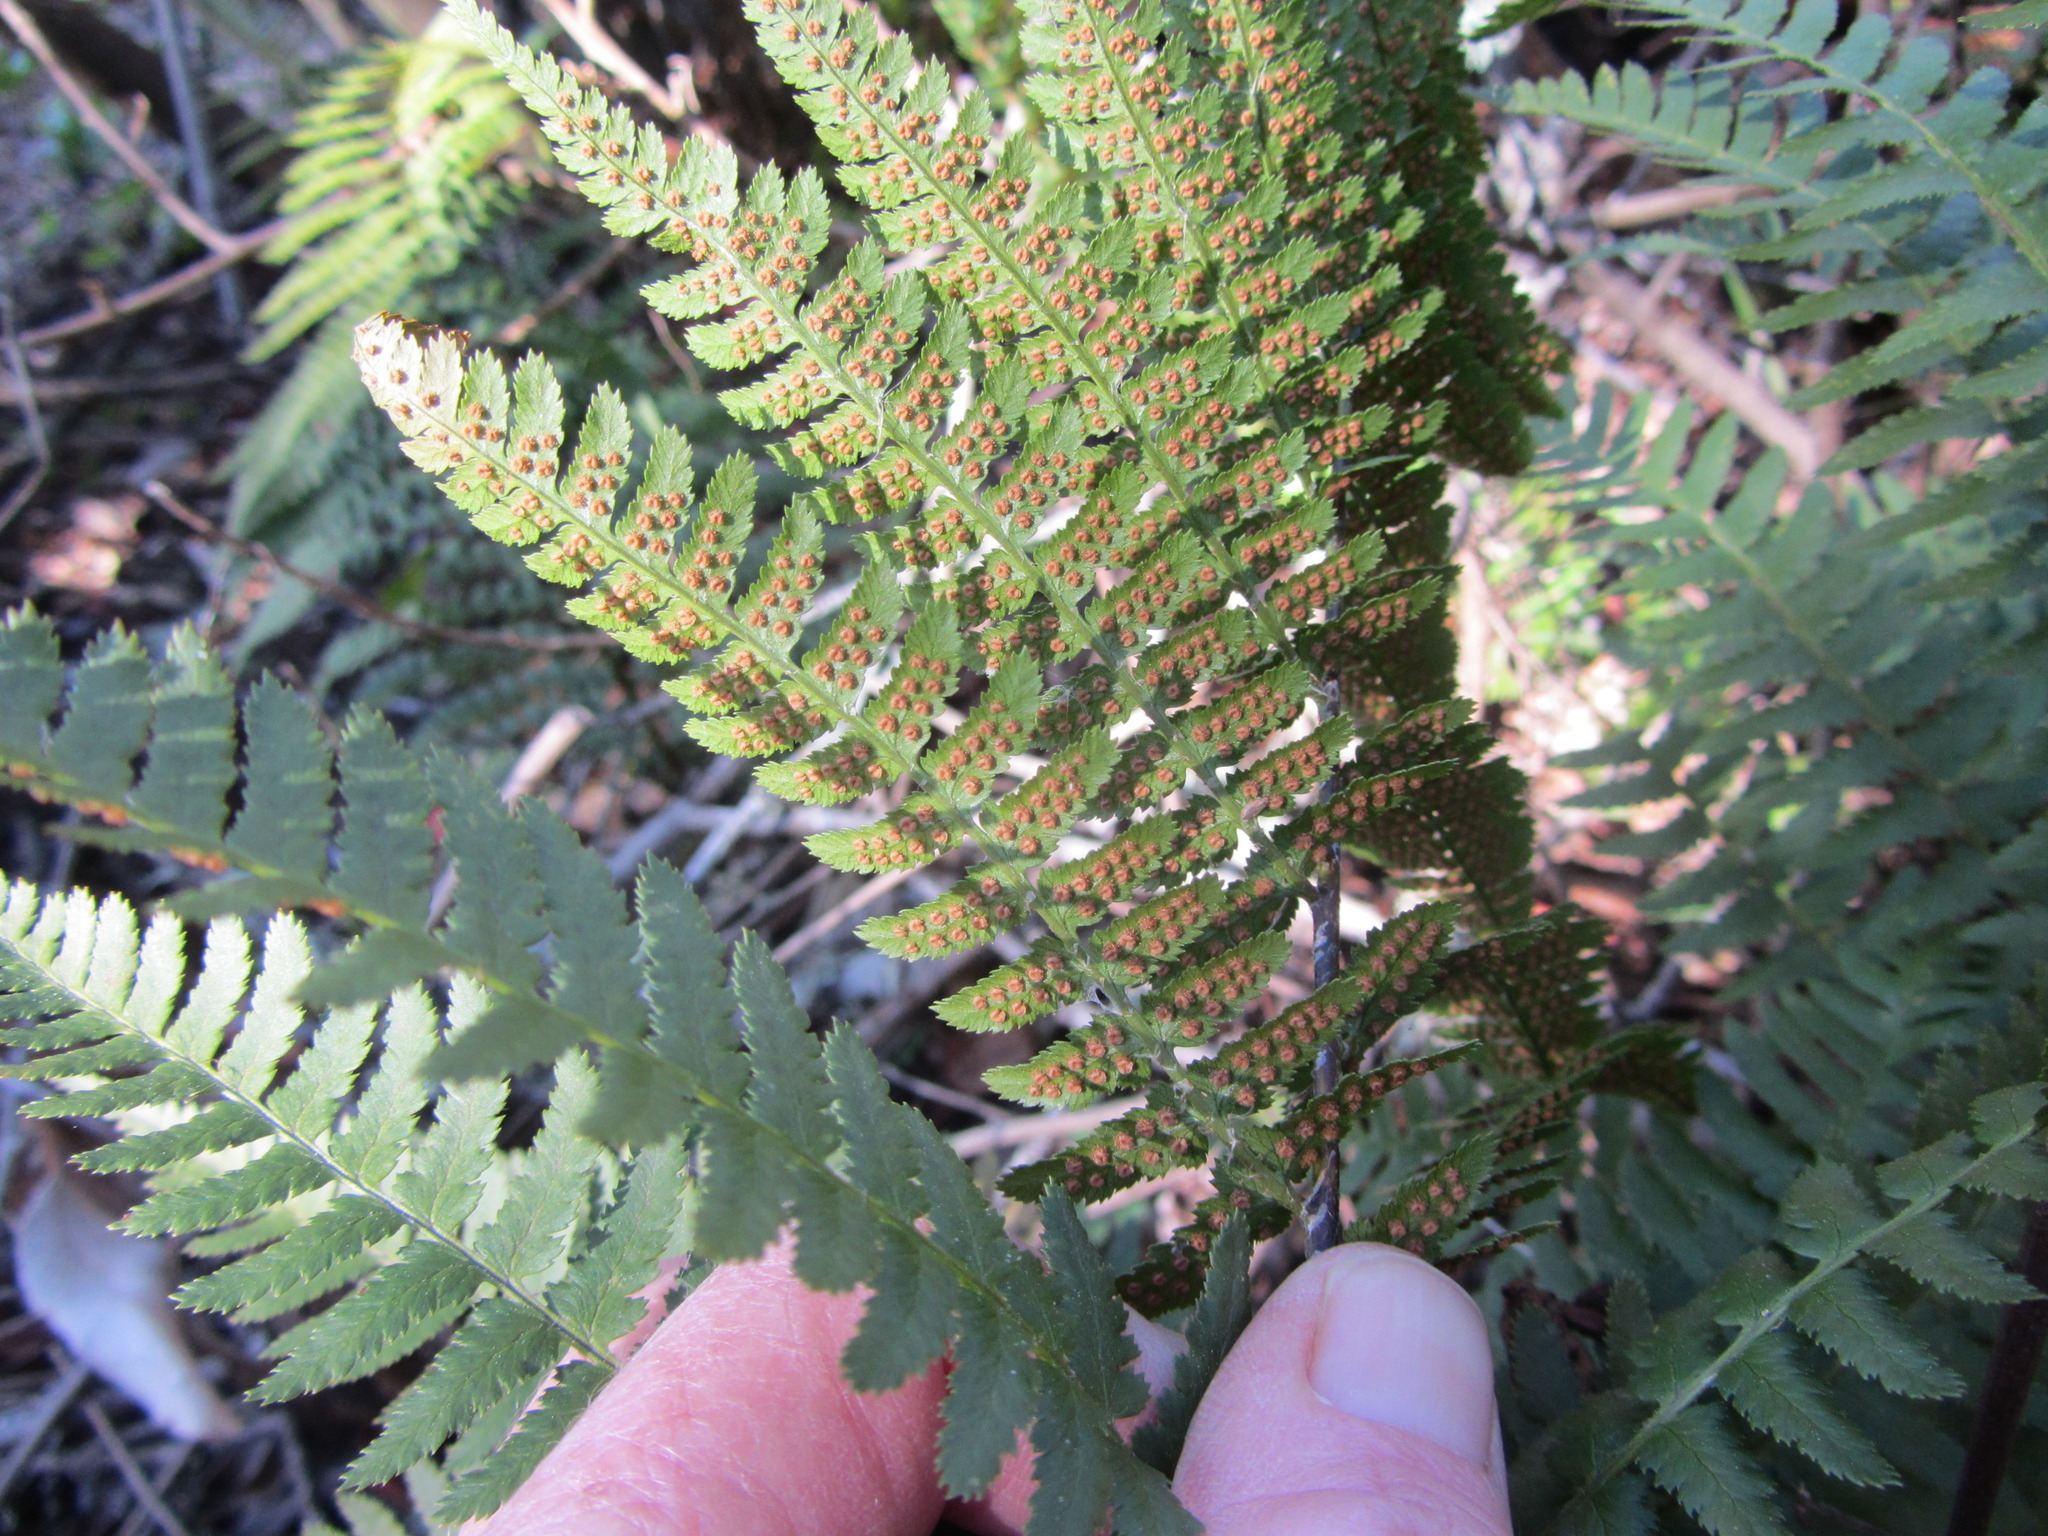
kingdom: Plantae
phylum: Tracheophyta
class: Polypodiopsida
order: Polypodiales
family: Dryopteridaceae
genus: Dryopteris
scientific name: Dryopteris arguta
